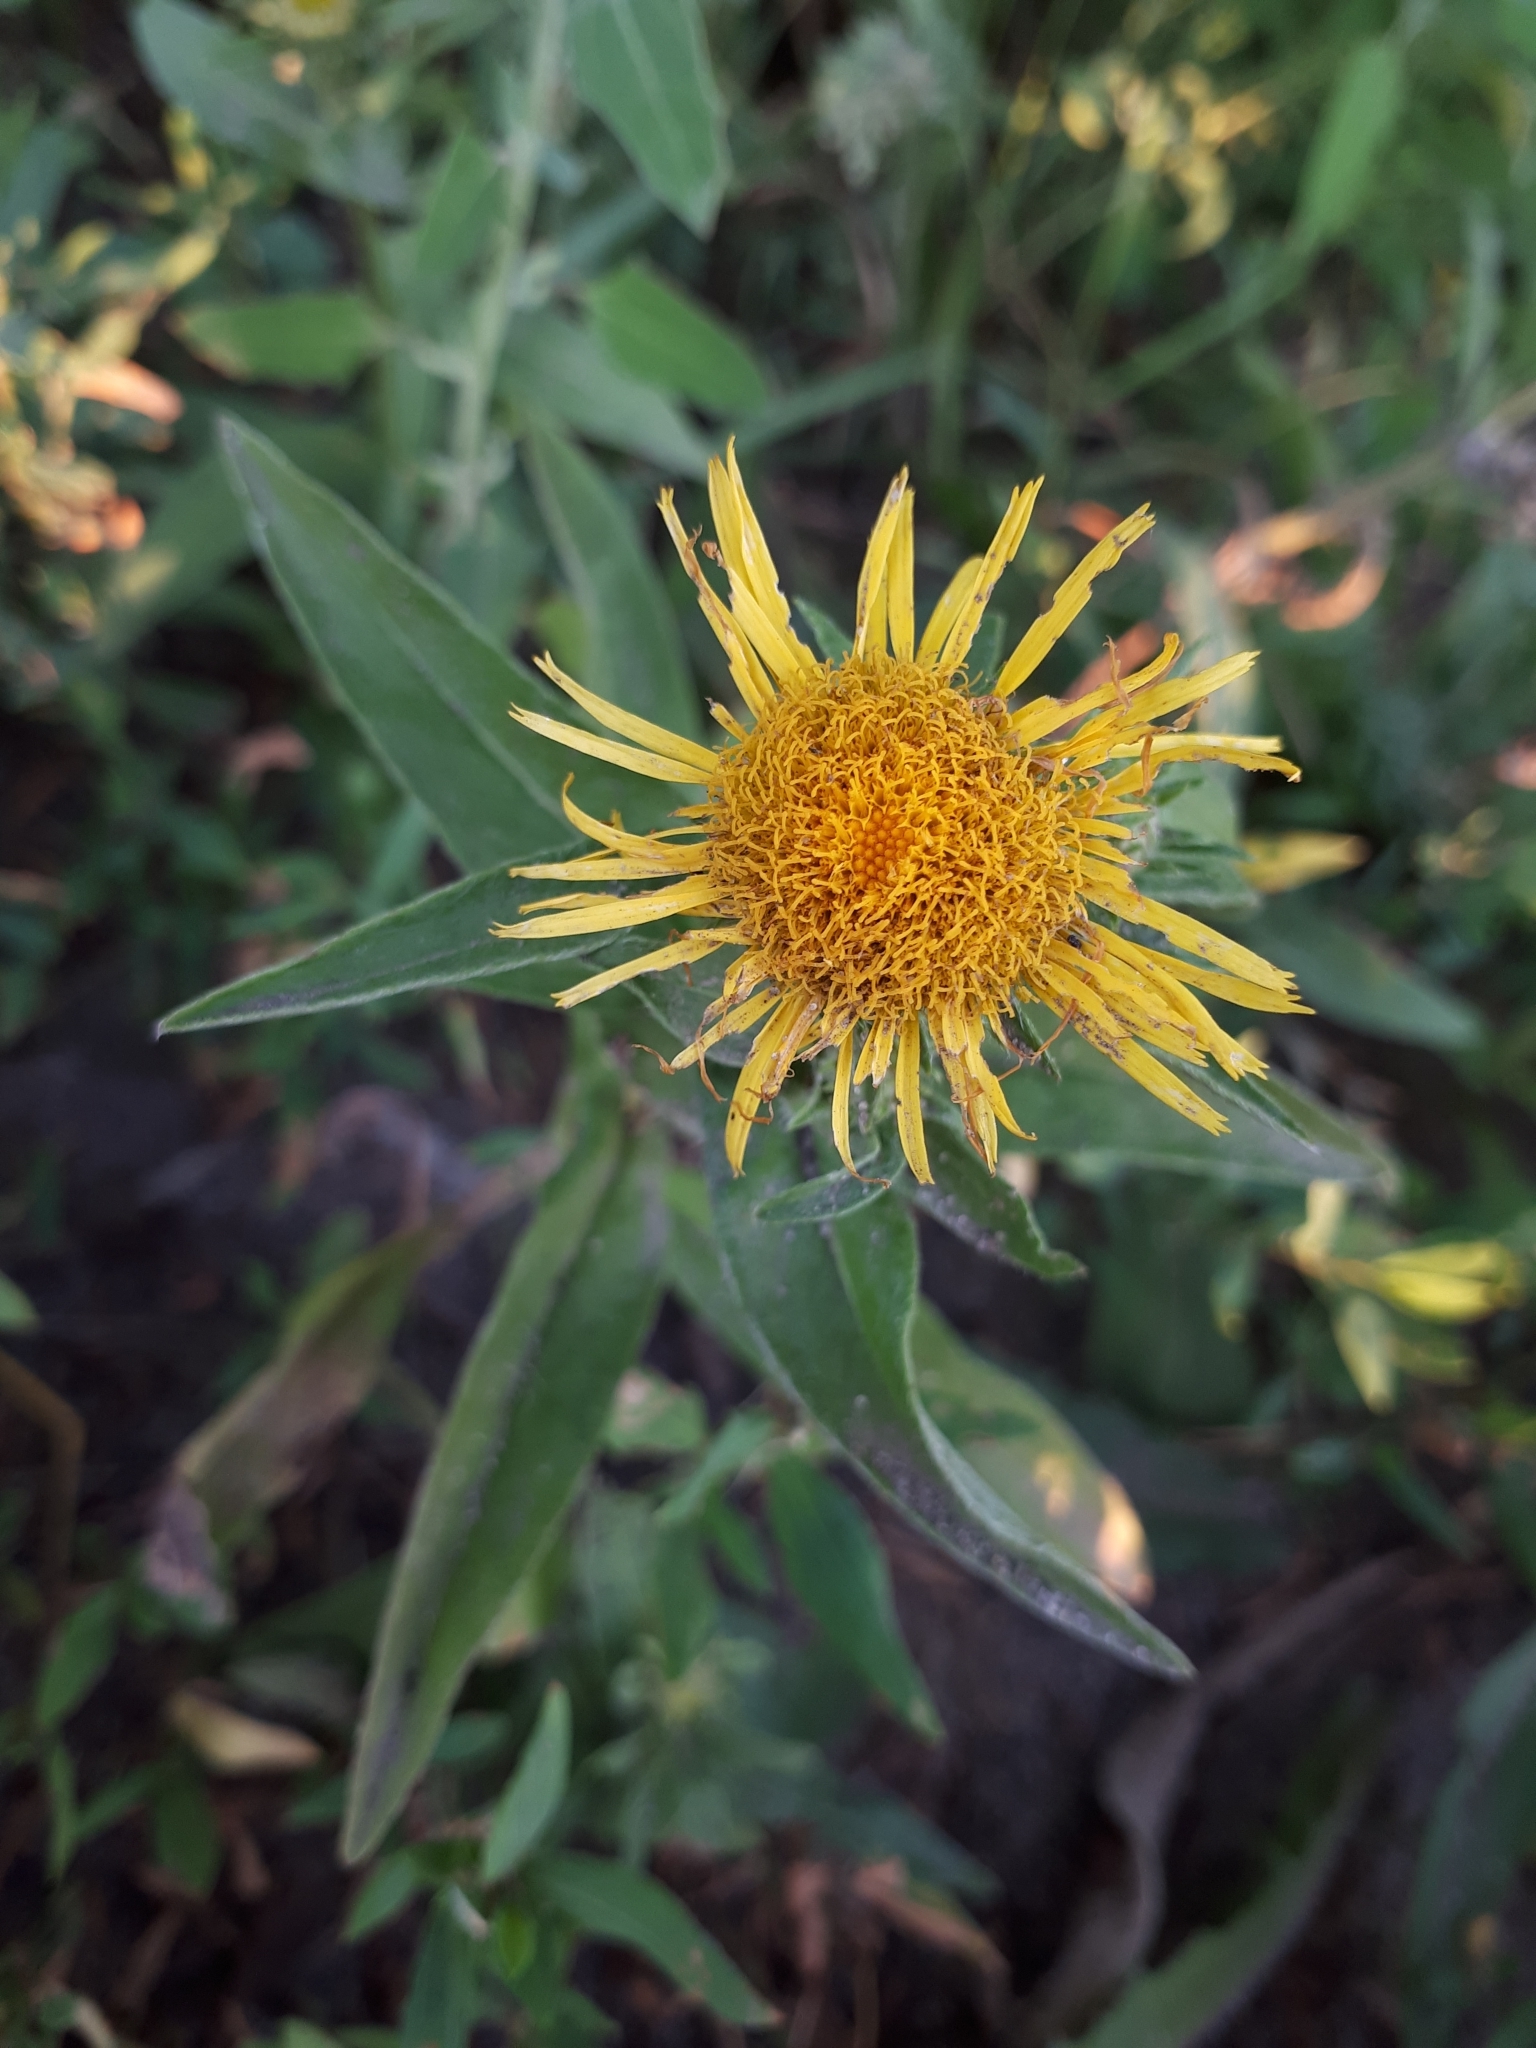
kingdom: Plantae
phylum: Tracheophyta
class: Magnoliopsida
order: Asterales
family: Asteraceae
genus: Pentanema
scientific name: Pentanema britannicum
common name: British elecampane
